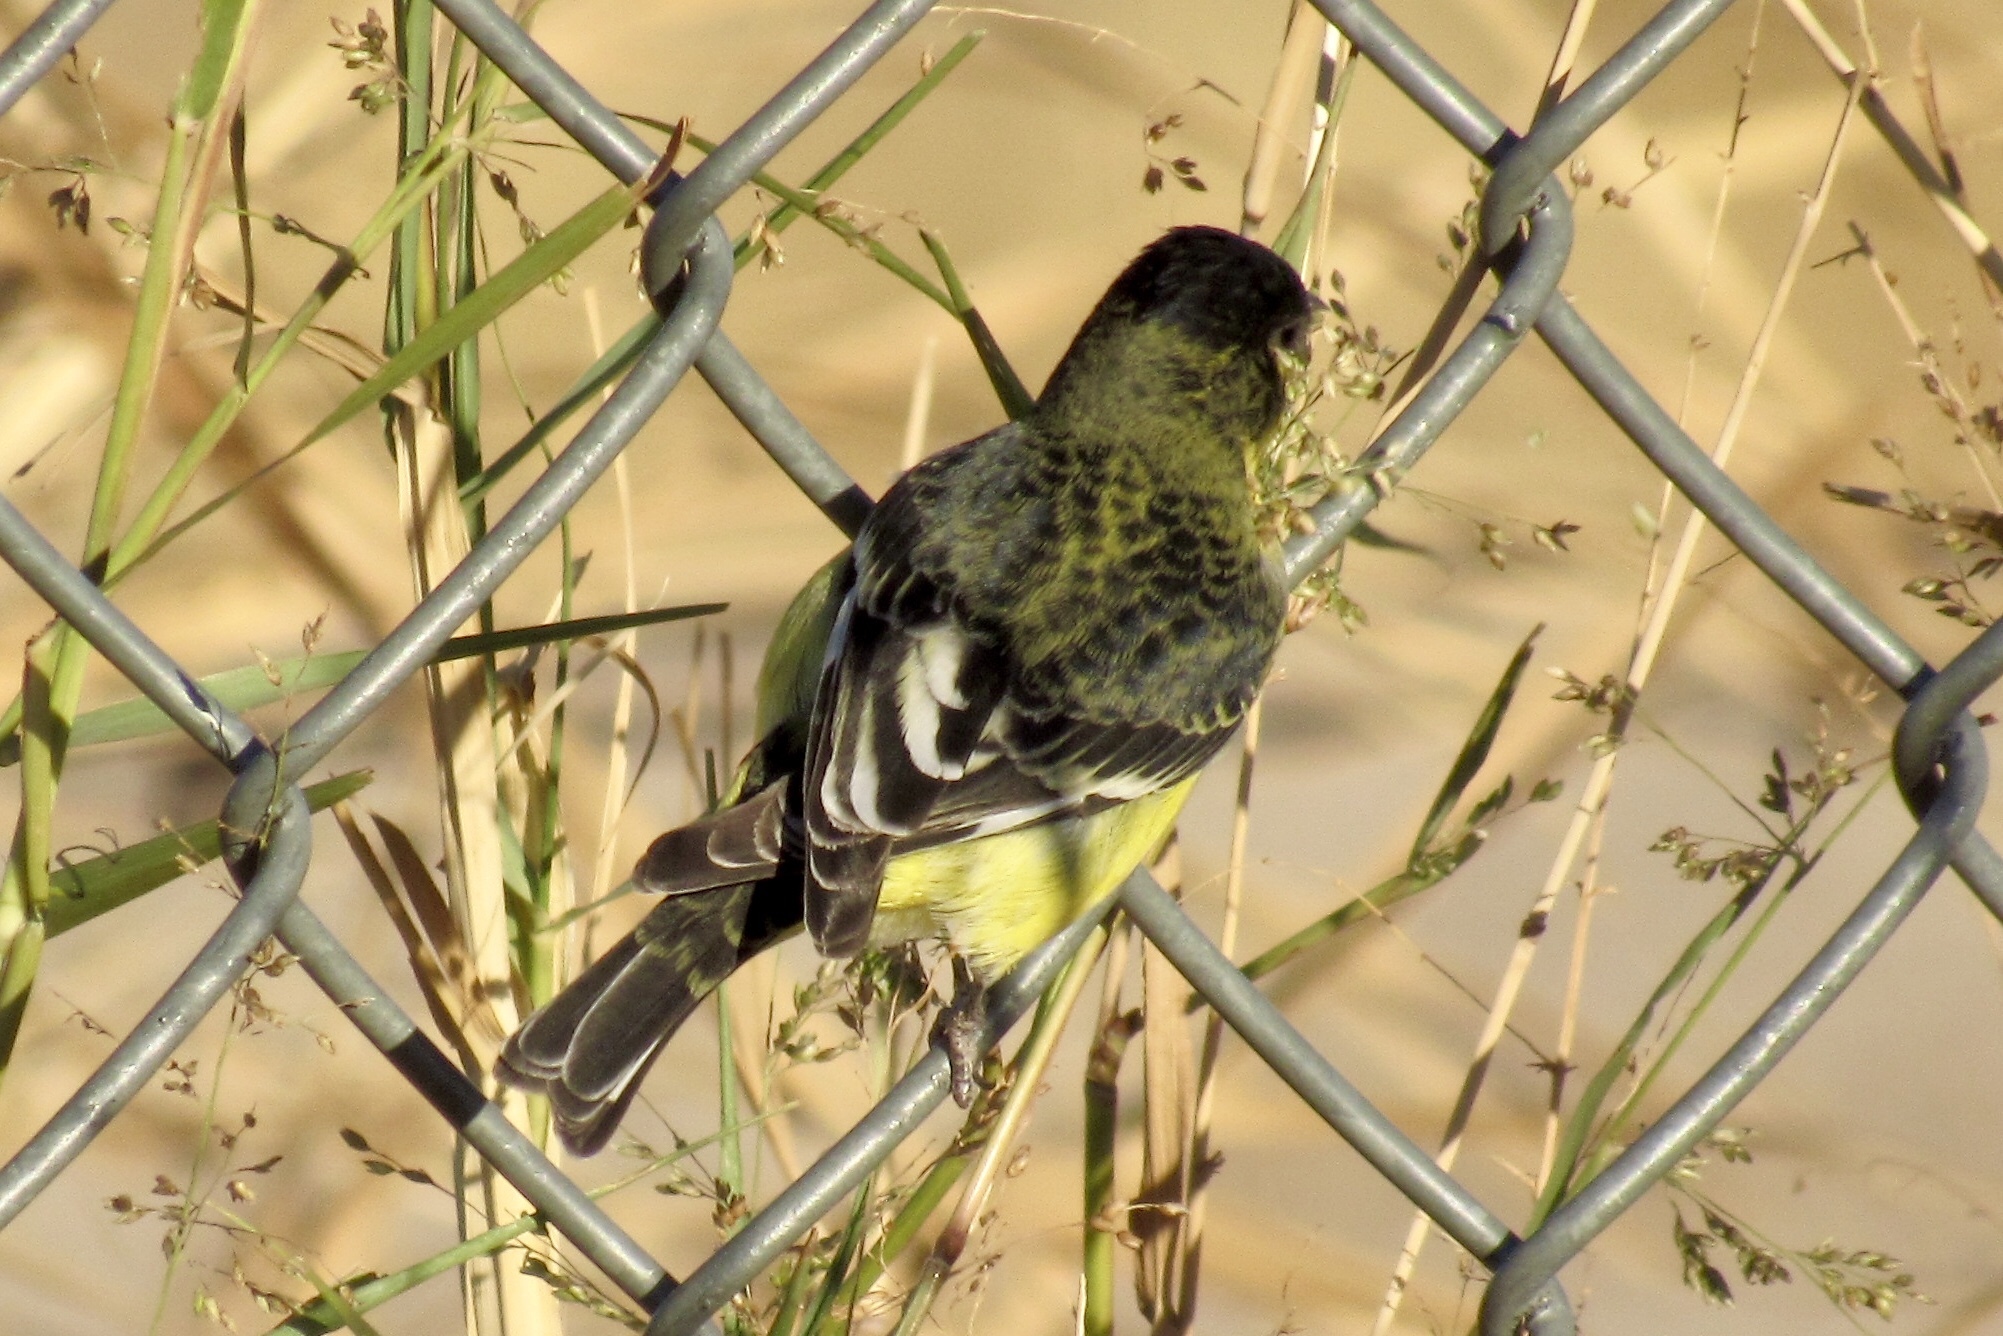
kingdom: Animalia
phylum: Chordata
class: Aves
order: Passeriformes
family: Fringillidae
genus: Spinus
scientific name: Spinus psaltria
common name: Lesser goldfinch
